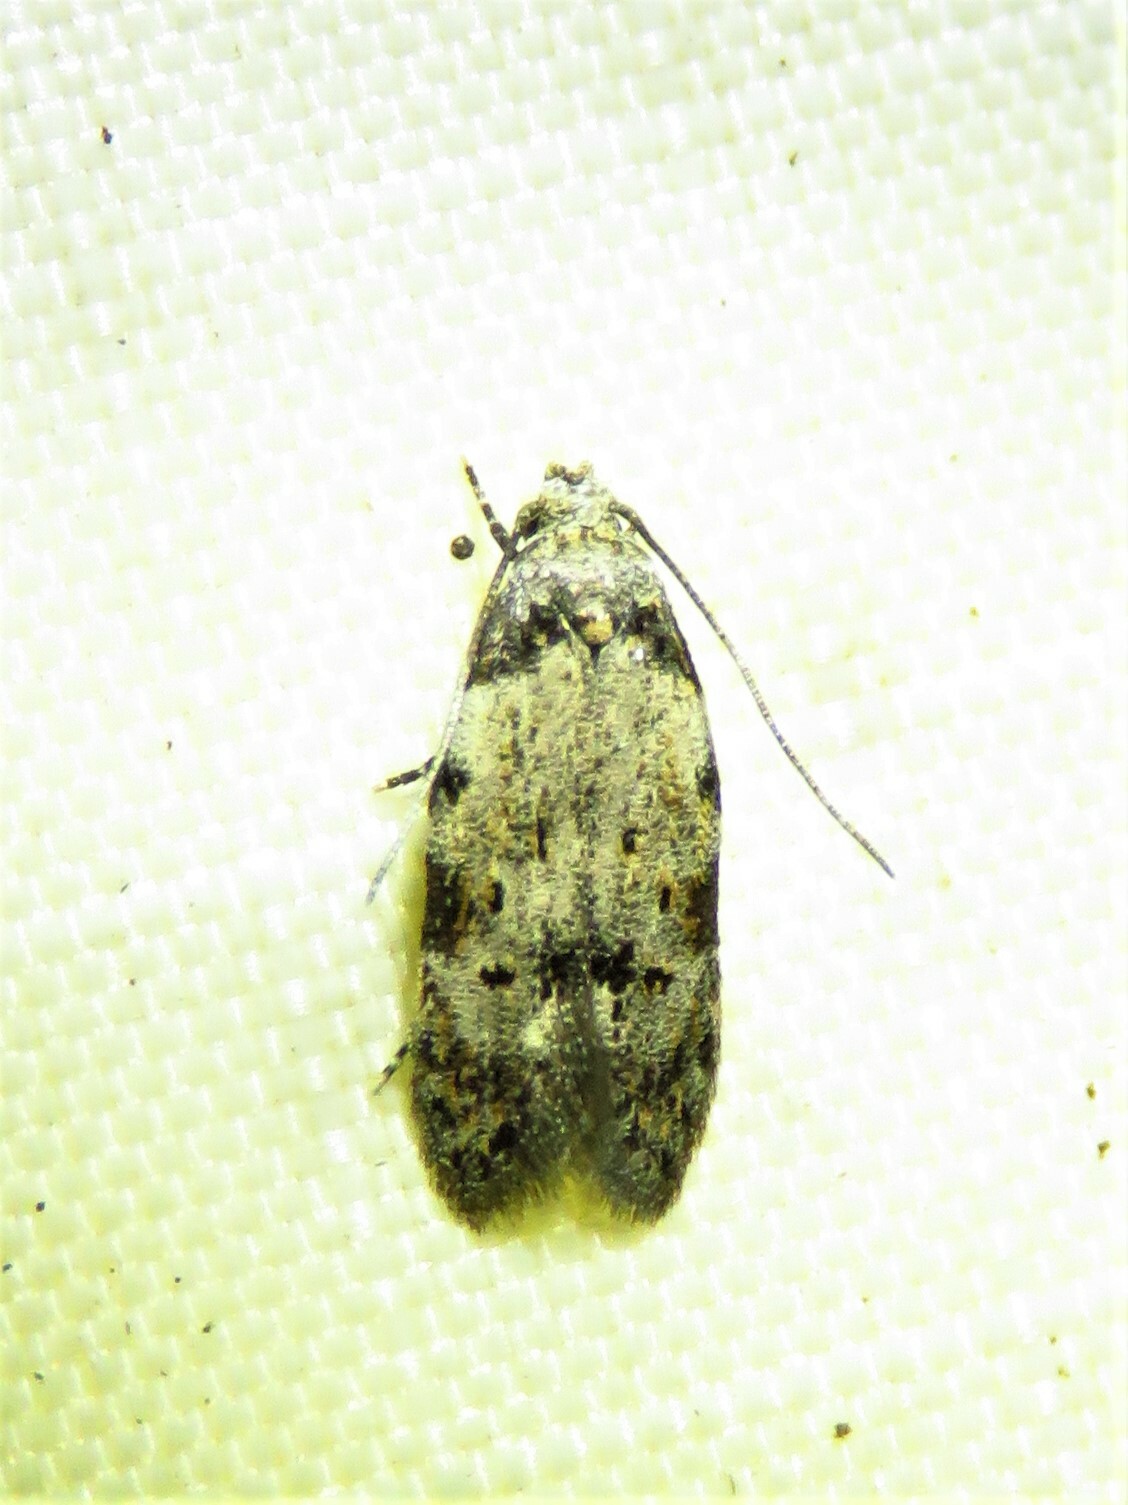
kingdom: Animalia
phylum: Arthropoda
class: Insecta
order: Lepidoptera
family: Autostichidae
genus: Taygete
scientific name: Taygete attributella
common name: Triangle-marked twirler moth
